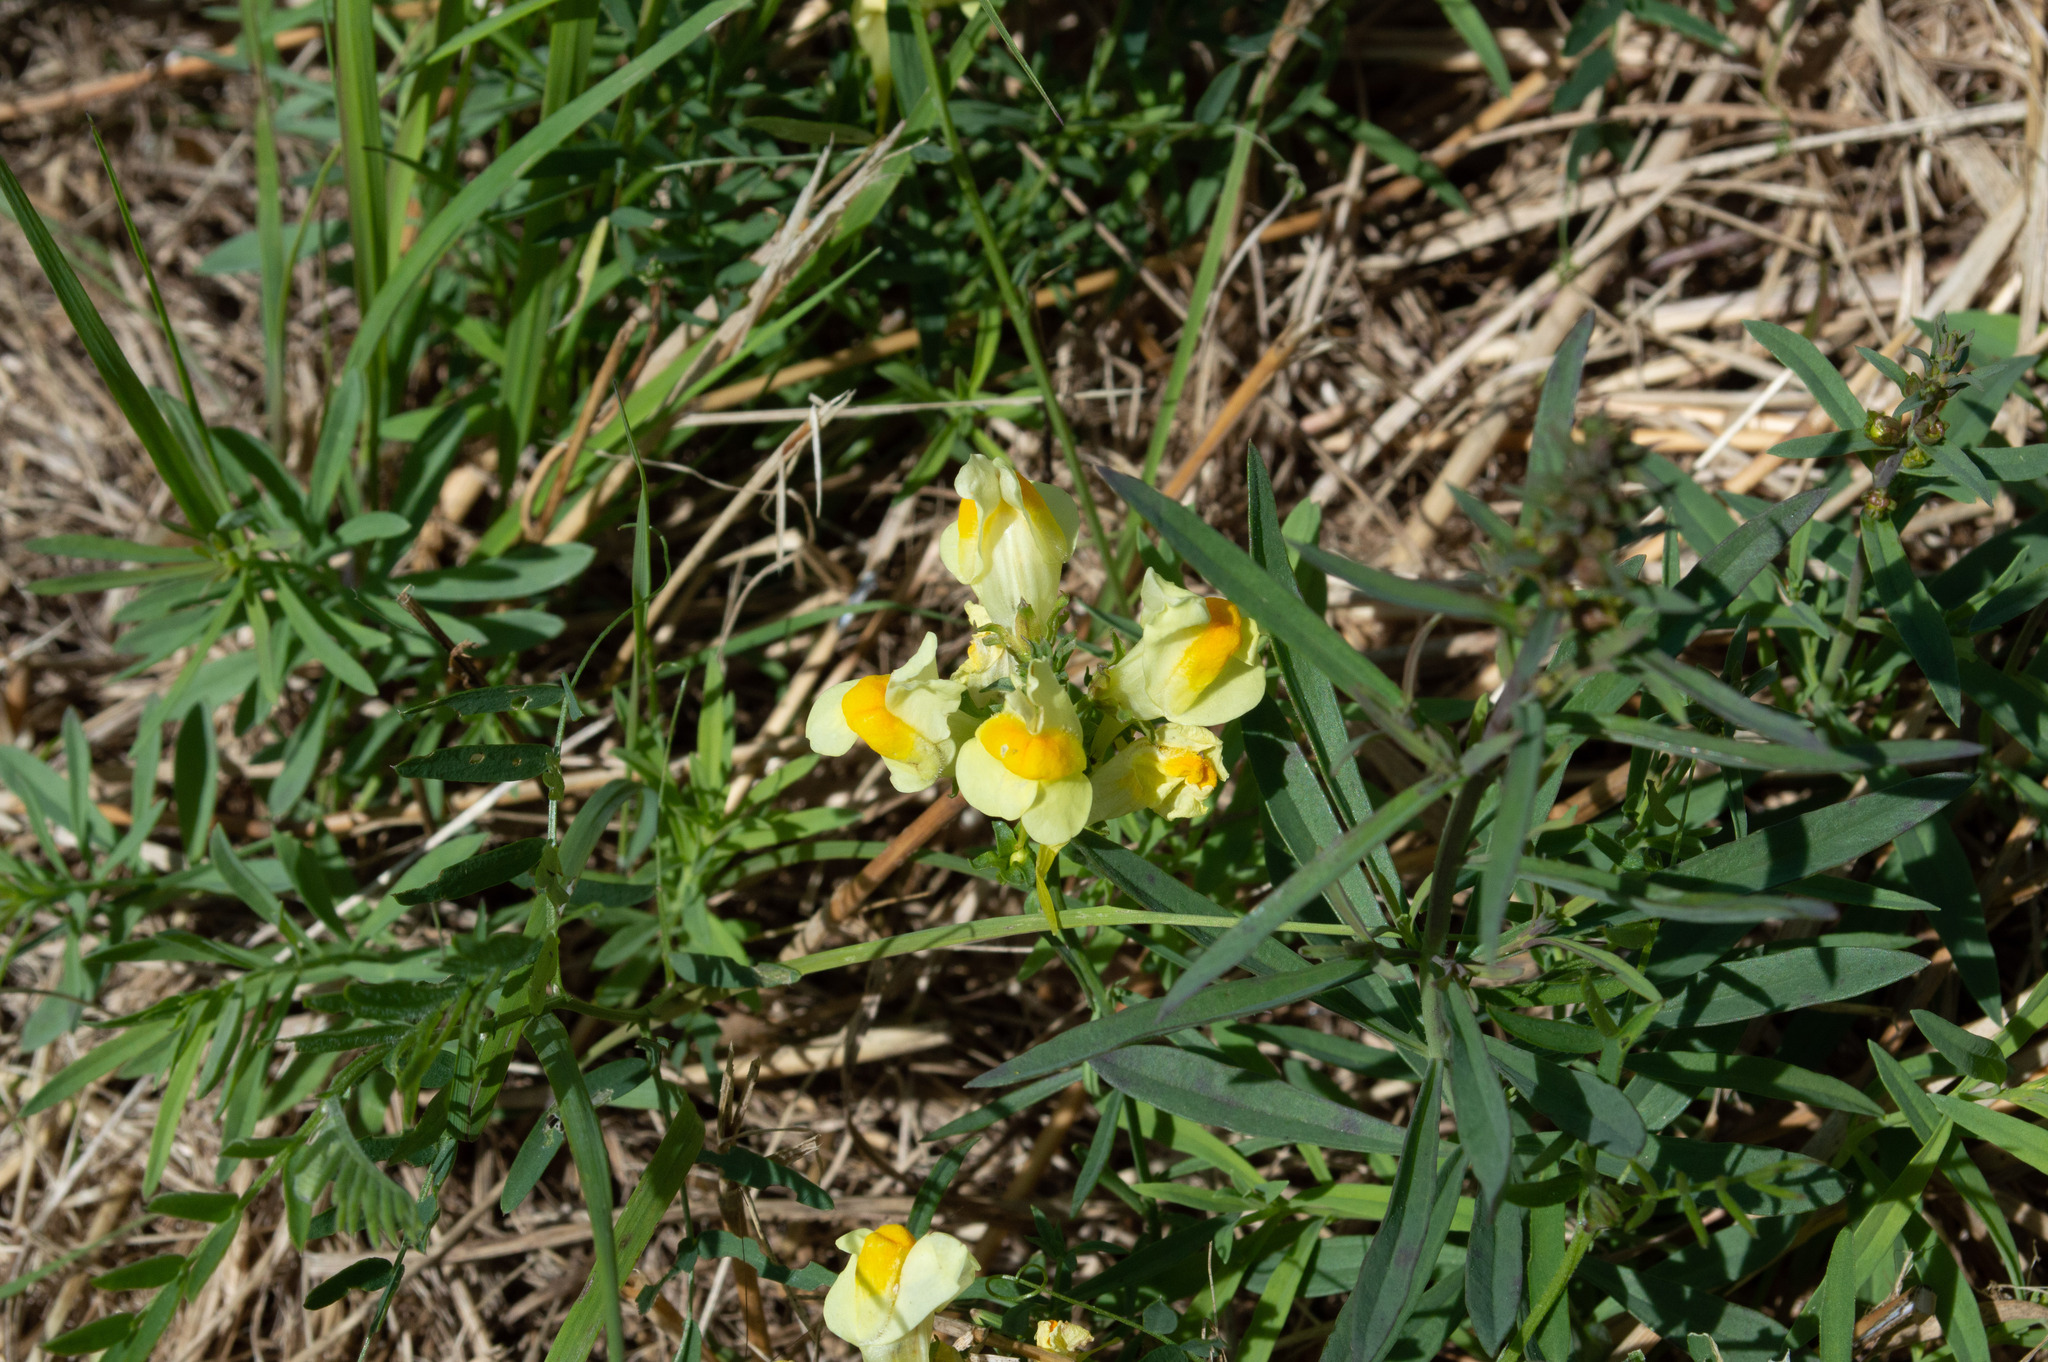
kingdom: Plantae
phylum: Tracheophyta
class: Magnoliopsida
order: Lamiales
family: Plantaginaceae
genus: Linaria
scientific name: Linaria vulgaris
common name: Butter and eggs
